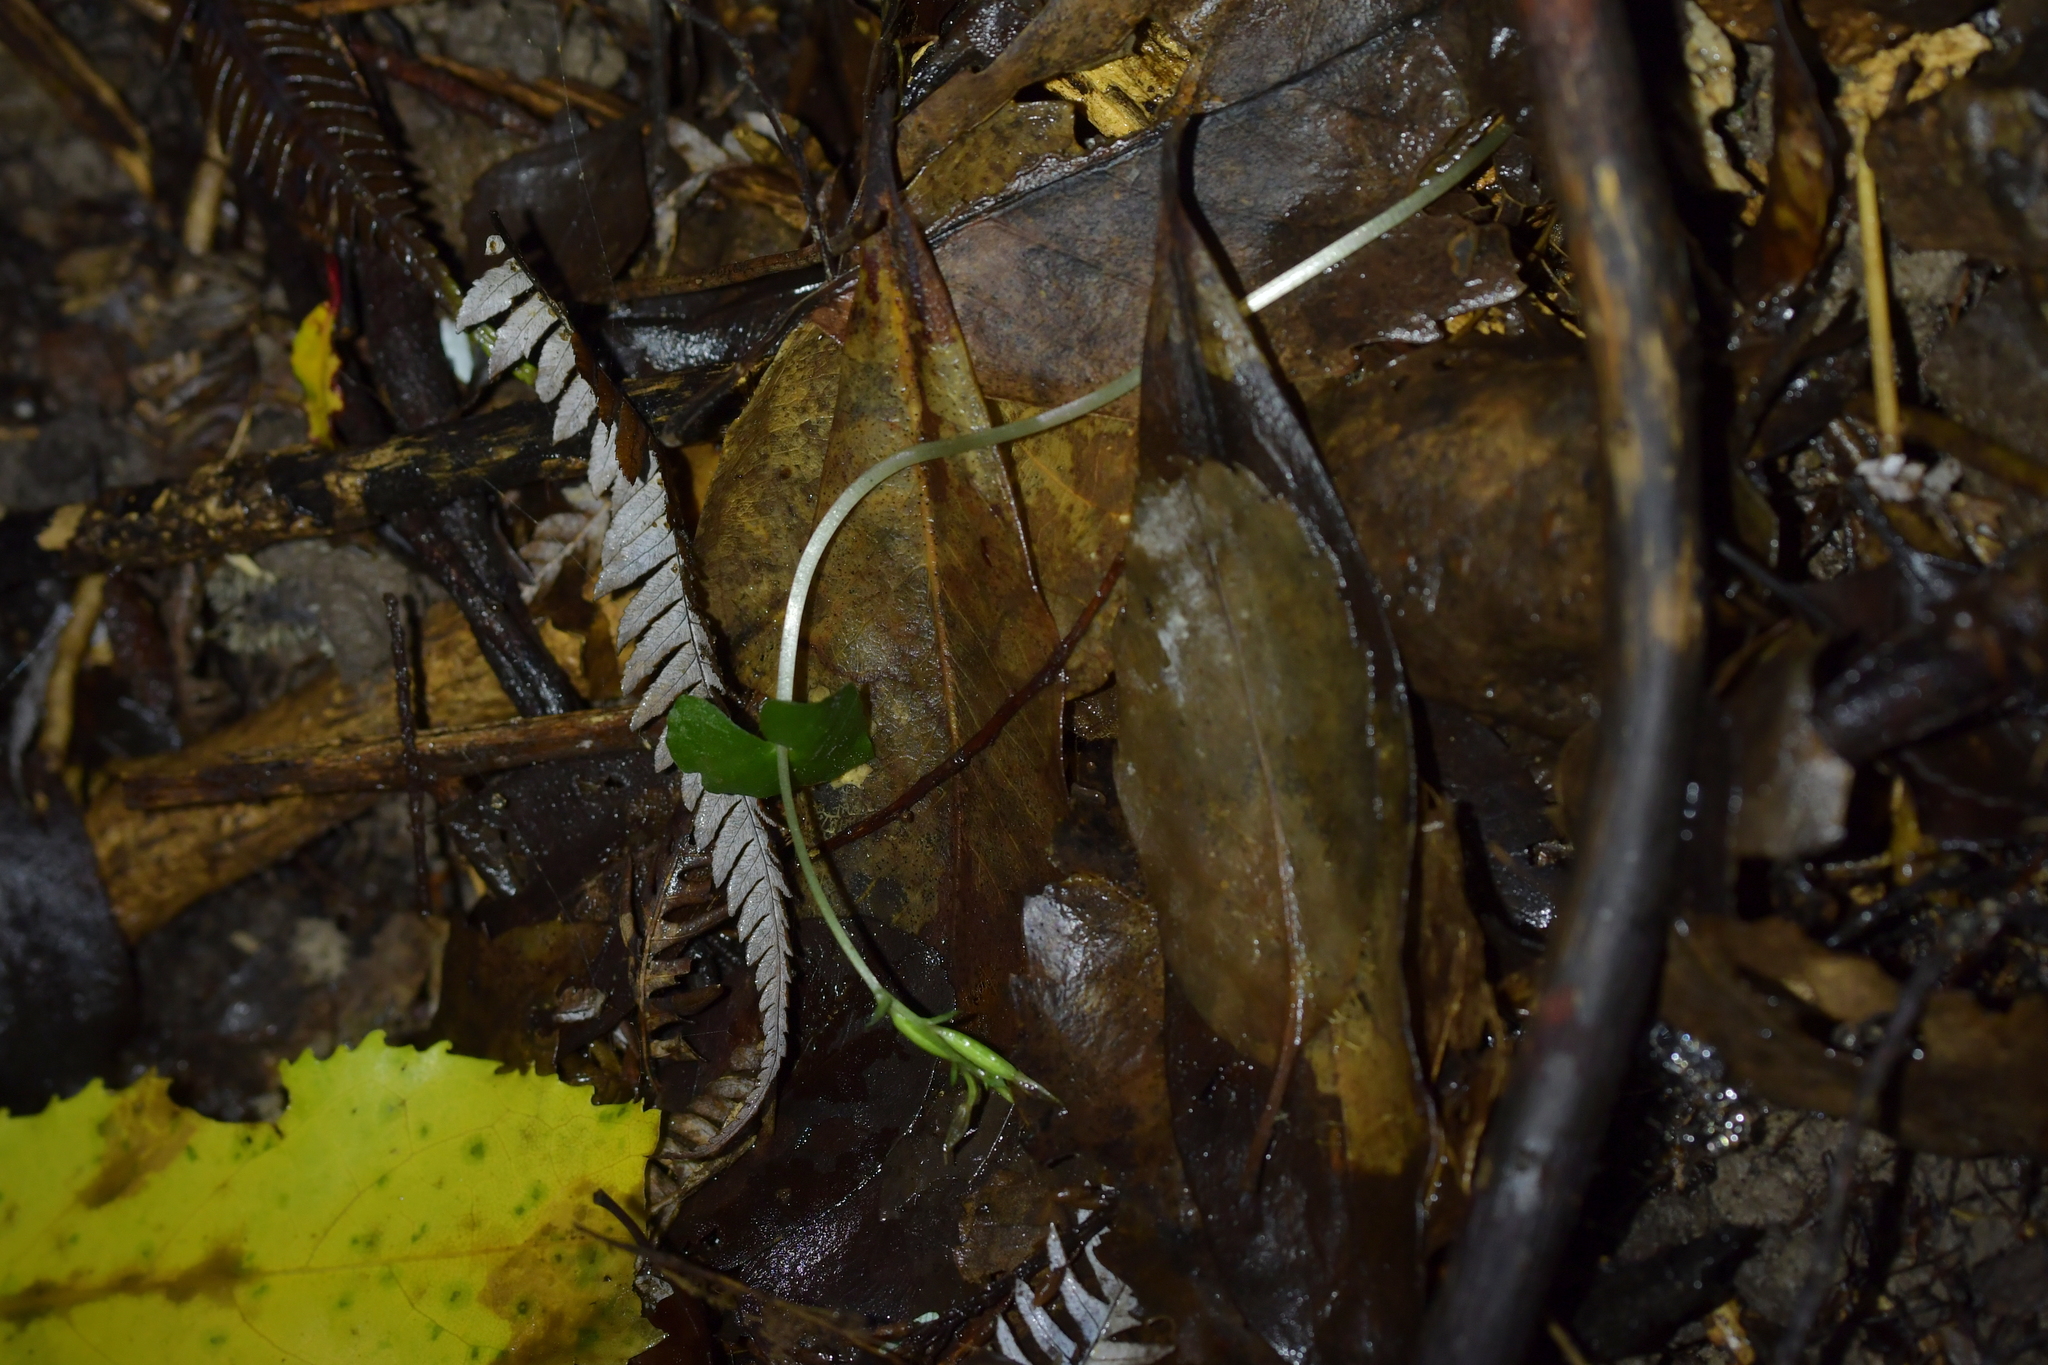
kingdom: Plantae
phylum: Tracheophyta
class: Liliopsida
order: Asparagales
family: Orchidaceae
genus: Acianthus
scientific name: Acianthus sinclairii
